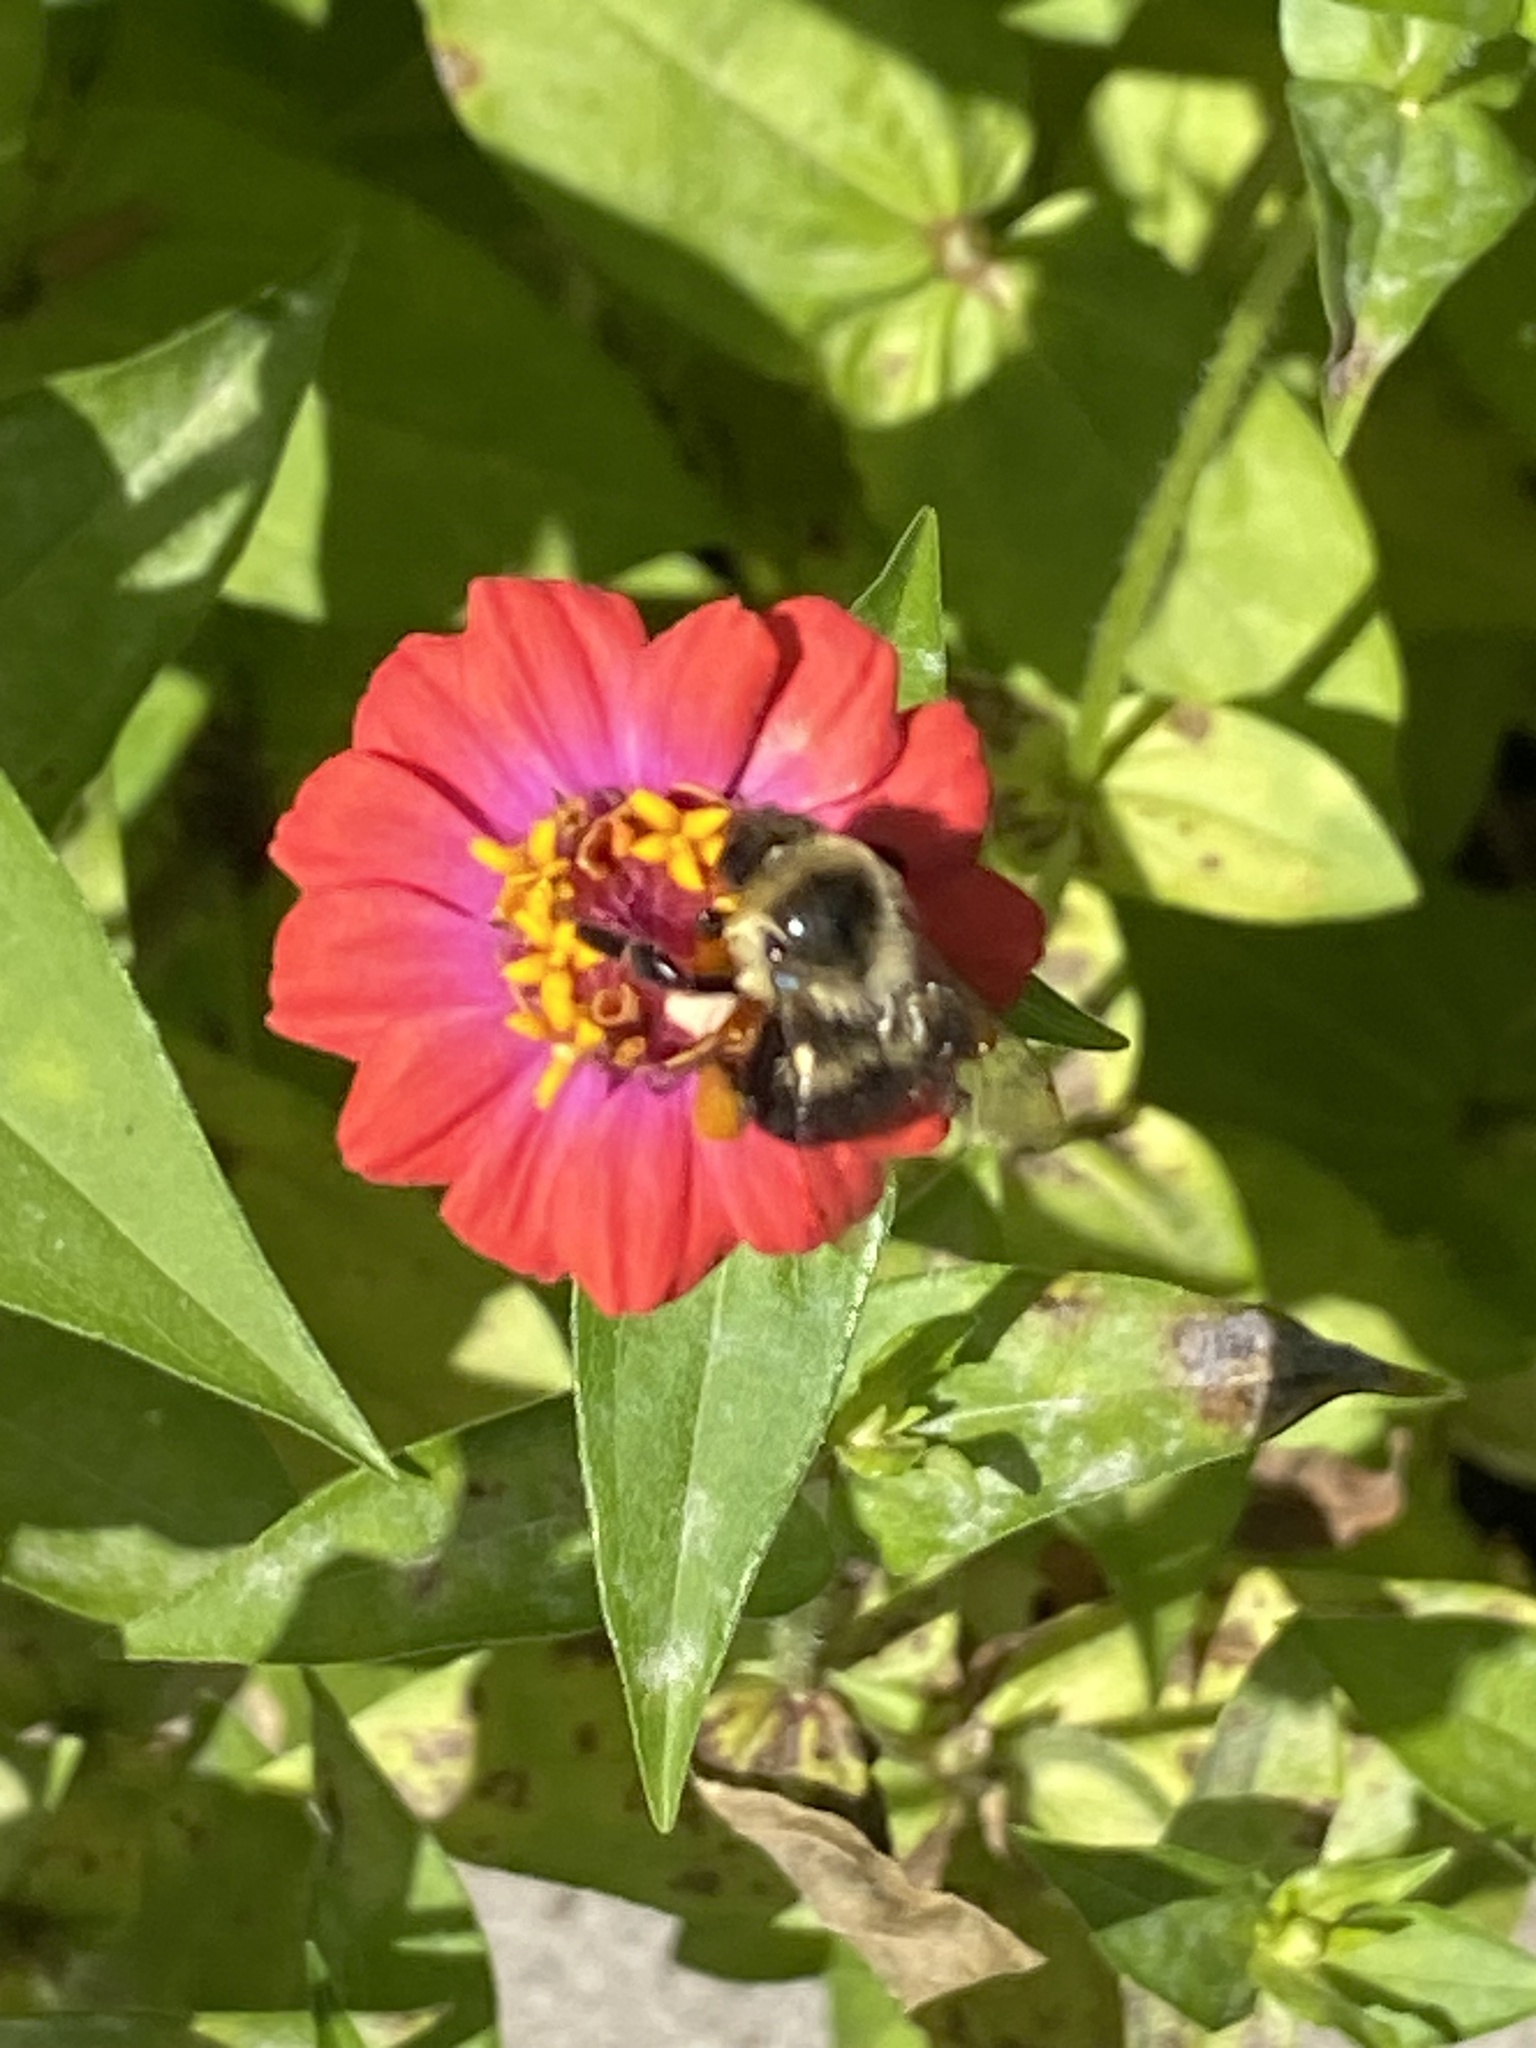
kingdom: Animalia
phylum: Arthropoda
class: Insecta
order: Hymenoptera
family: Apidae
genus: Bombus
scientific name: Bombus impatiens
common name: Common eastern bumble bee
